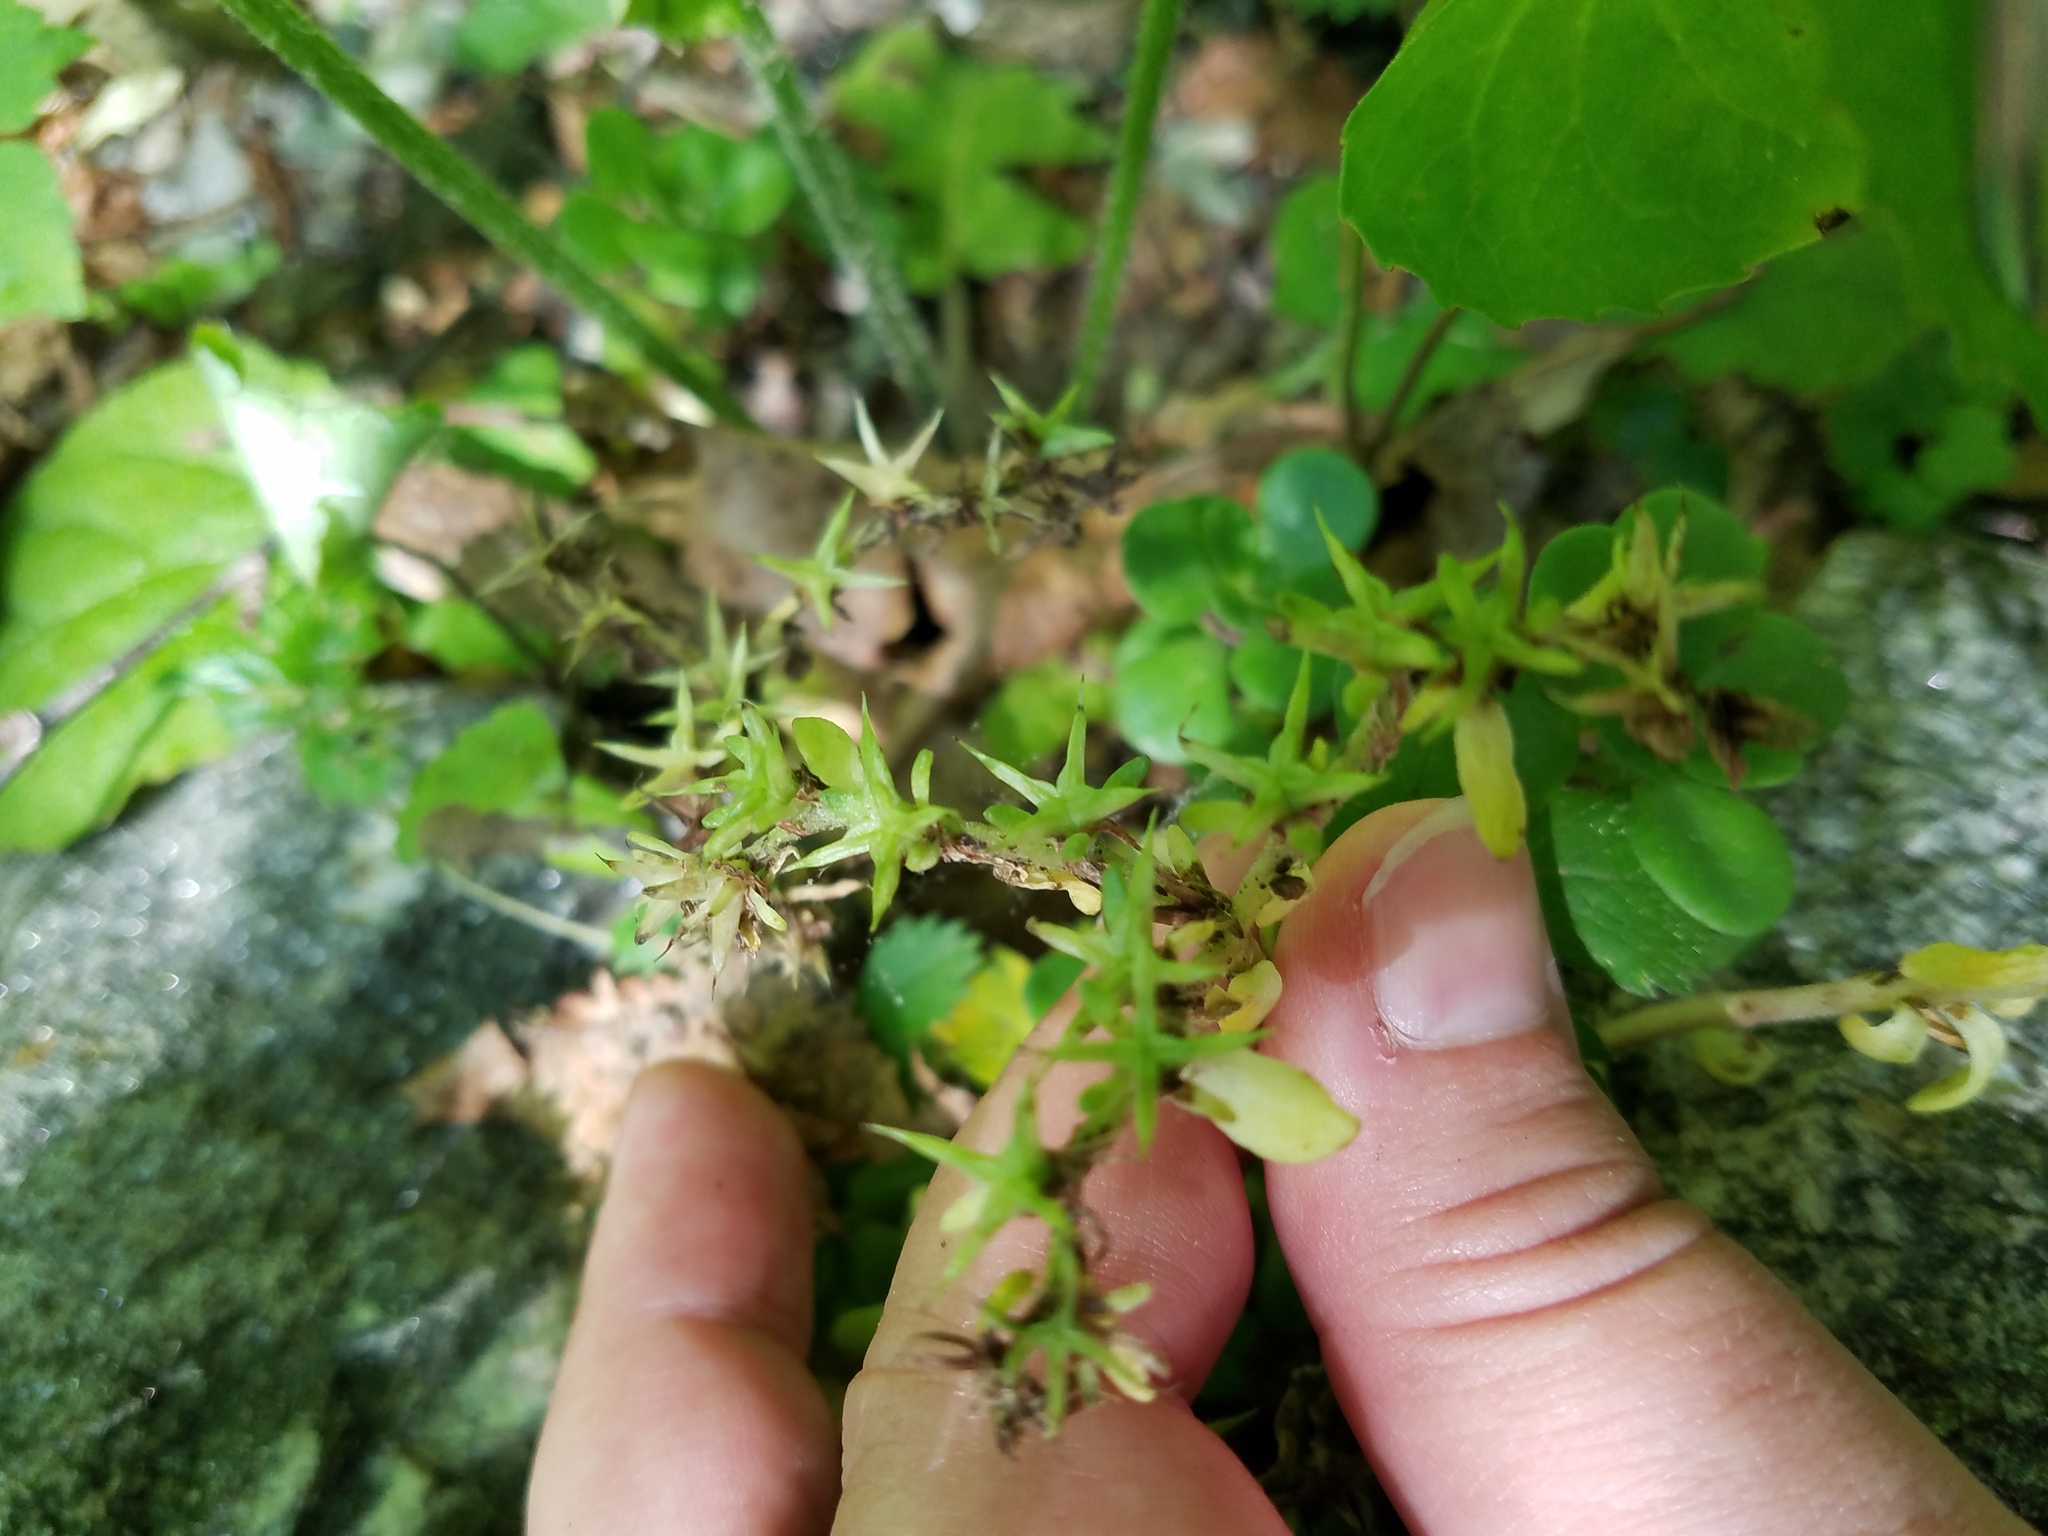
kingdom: Plantae
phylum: Tracheophyta
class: Magnoliopsida
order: Saxifragales
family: Crassulaceae
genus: Sedum
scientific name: Sedum ternatum
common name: Wild stonecrop
